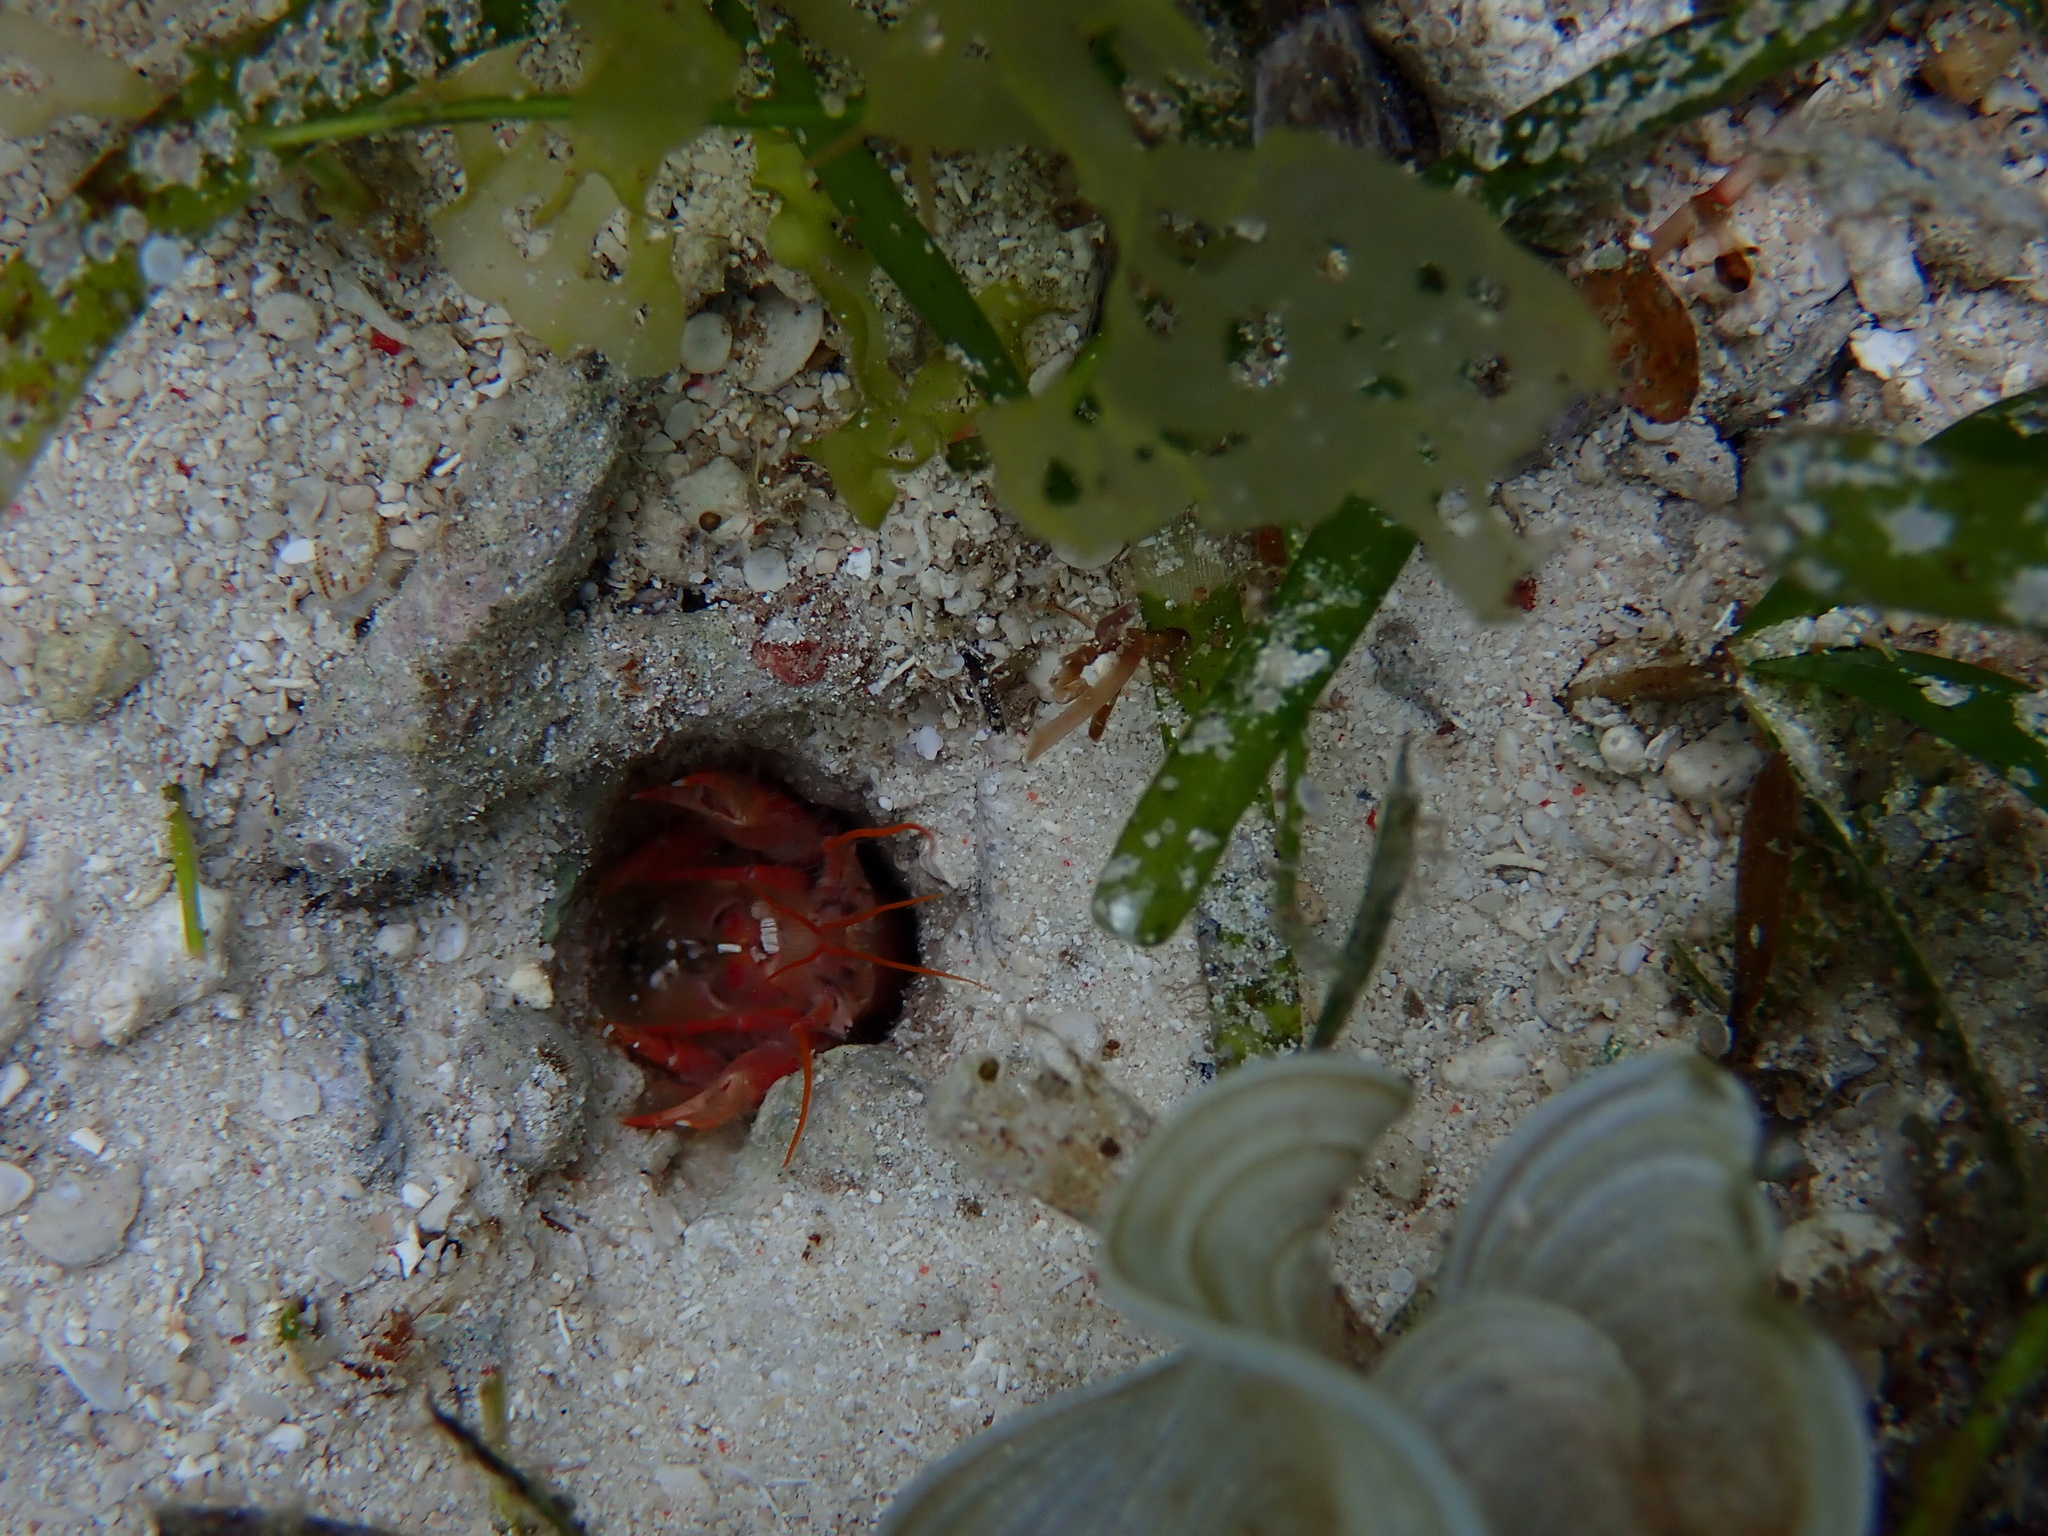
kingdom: Animalia
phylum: Arthropoda
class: Malacostraca
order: Decapoda
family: Strahlaxiidae
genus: Neaxius
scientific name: Neaxius acanthus
